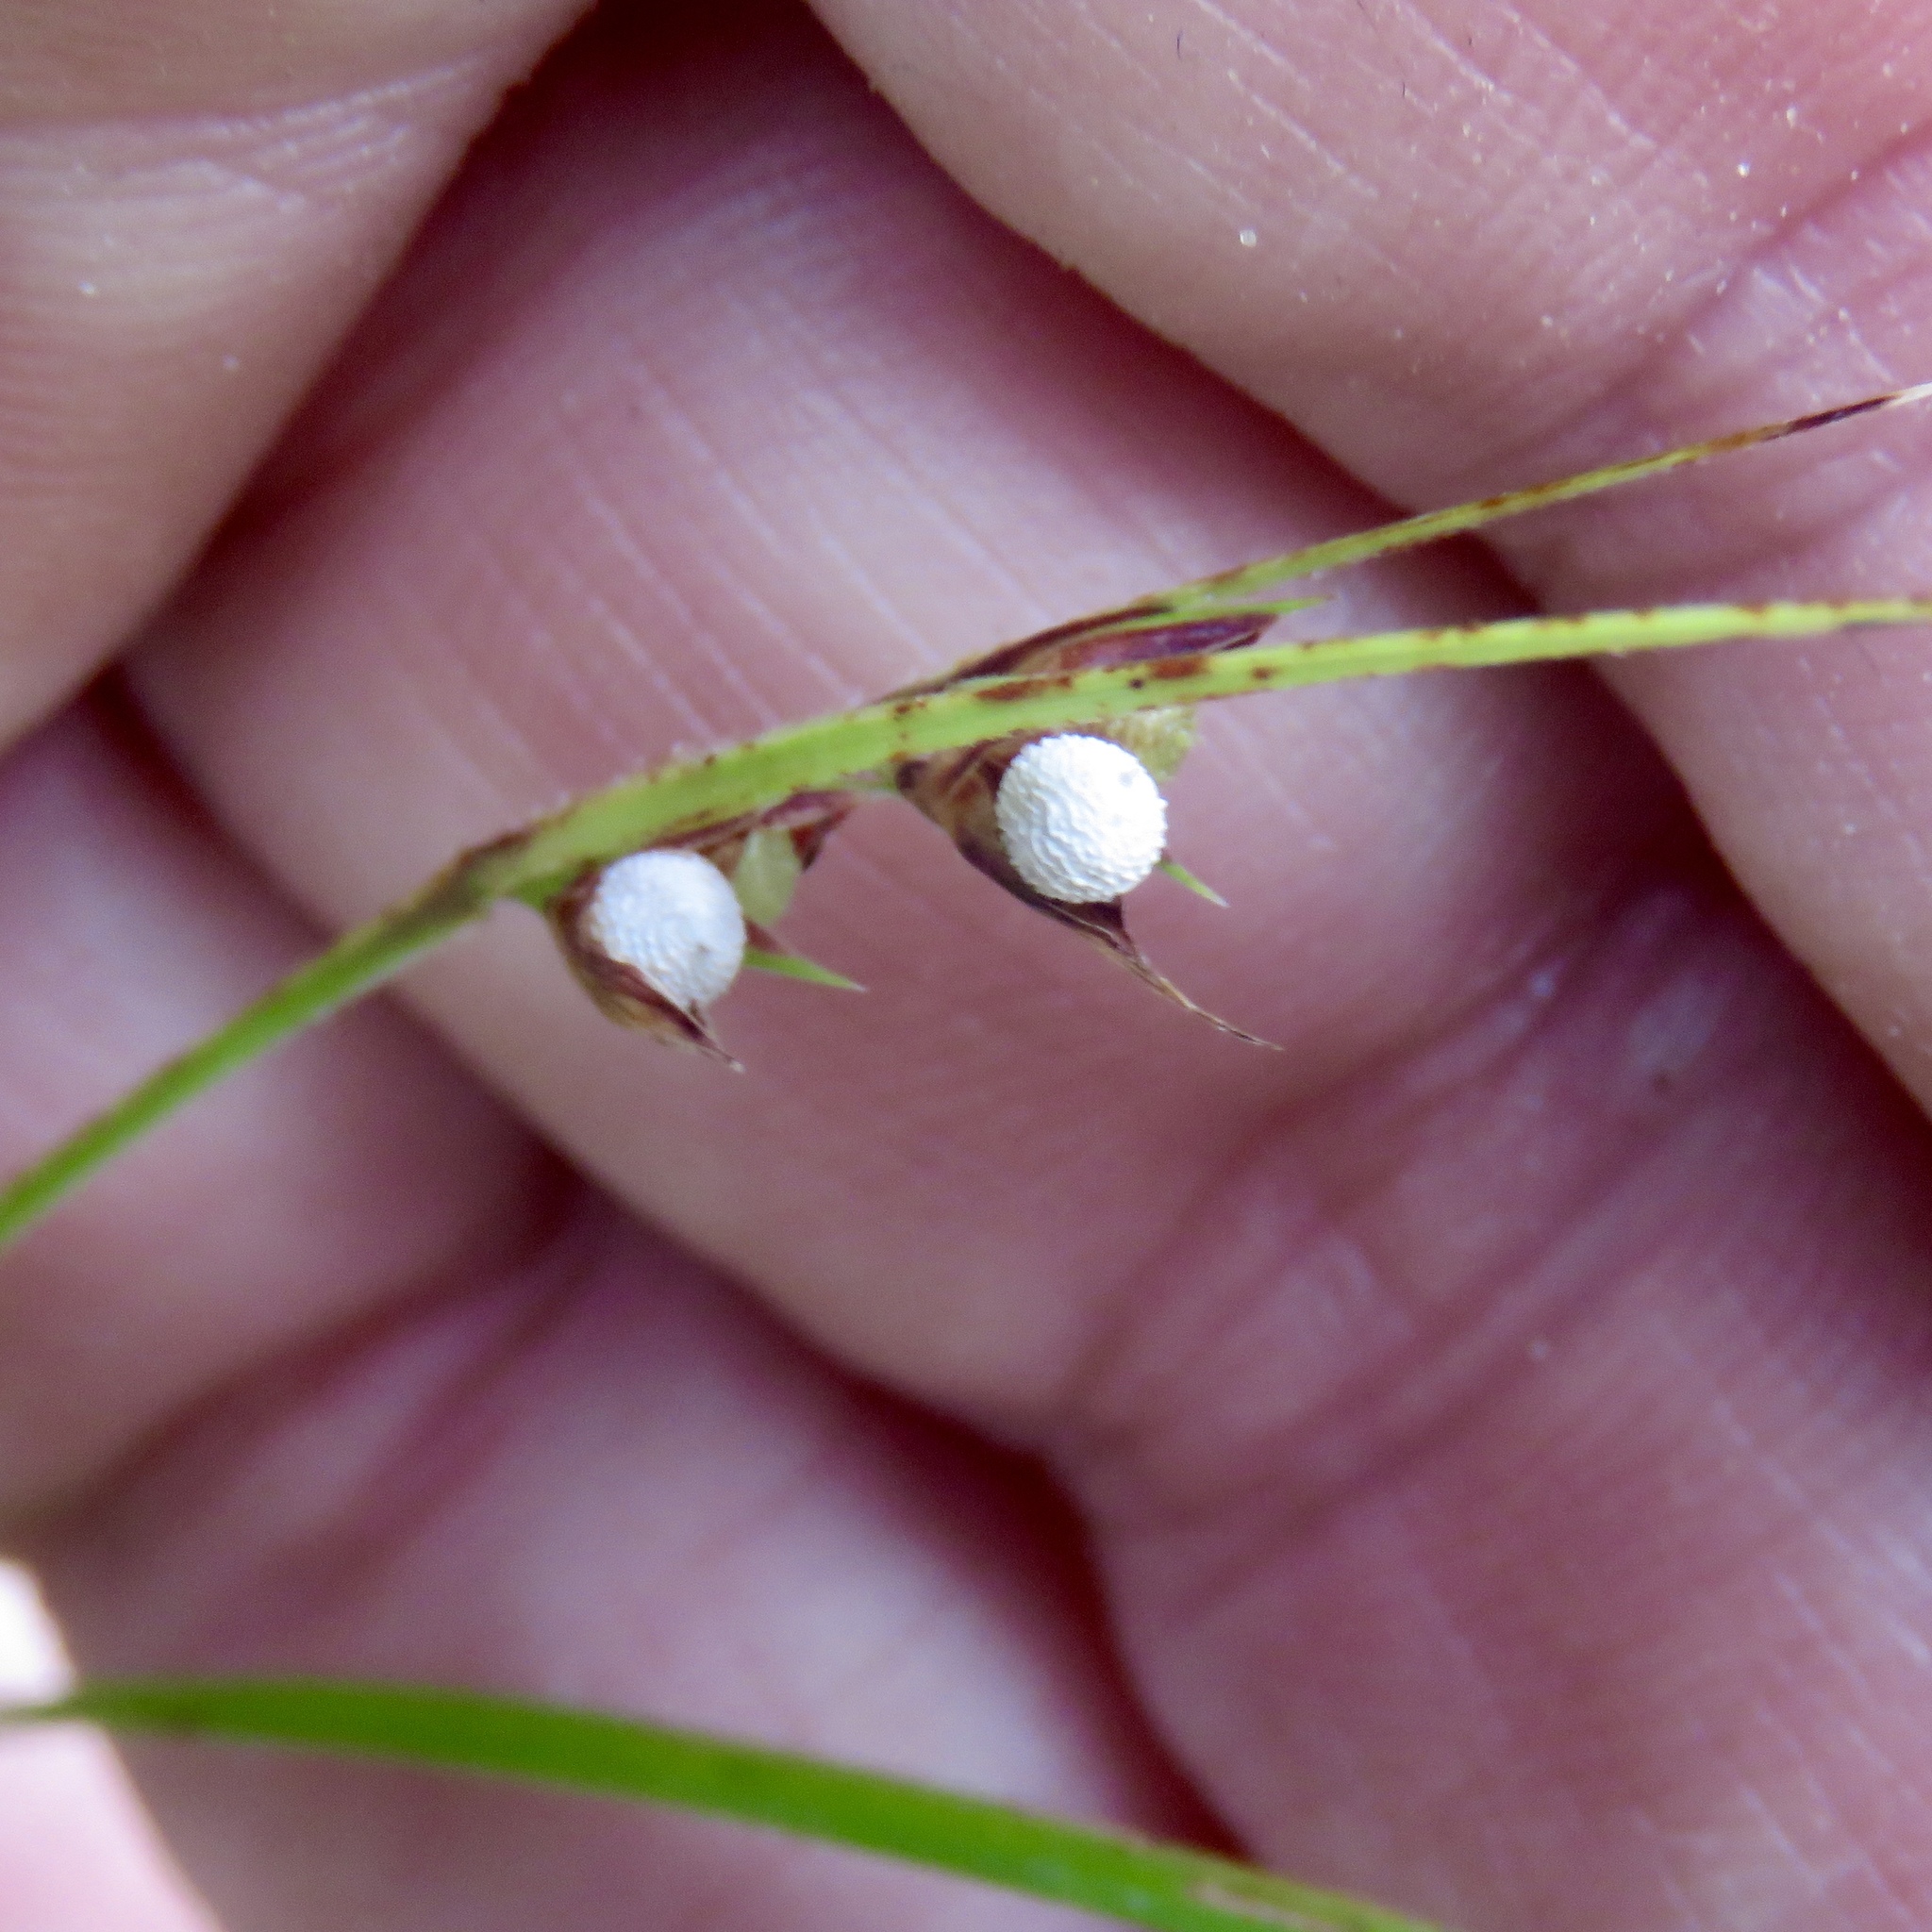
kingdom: Plantae
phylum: Tracheophyta
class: Liliopsida
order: Poales
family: Cyperaceae
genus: Scleria
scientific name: Scleria muehlenbergii
